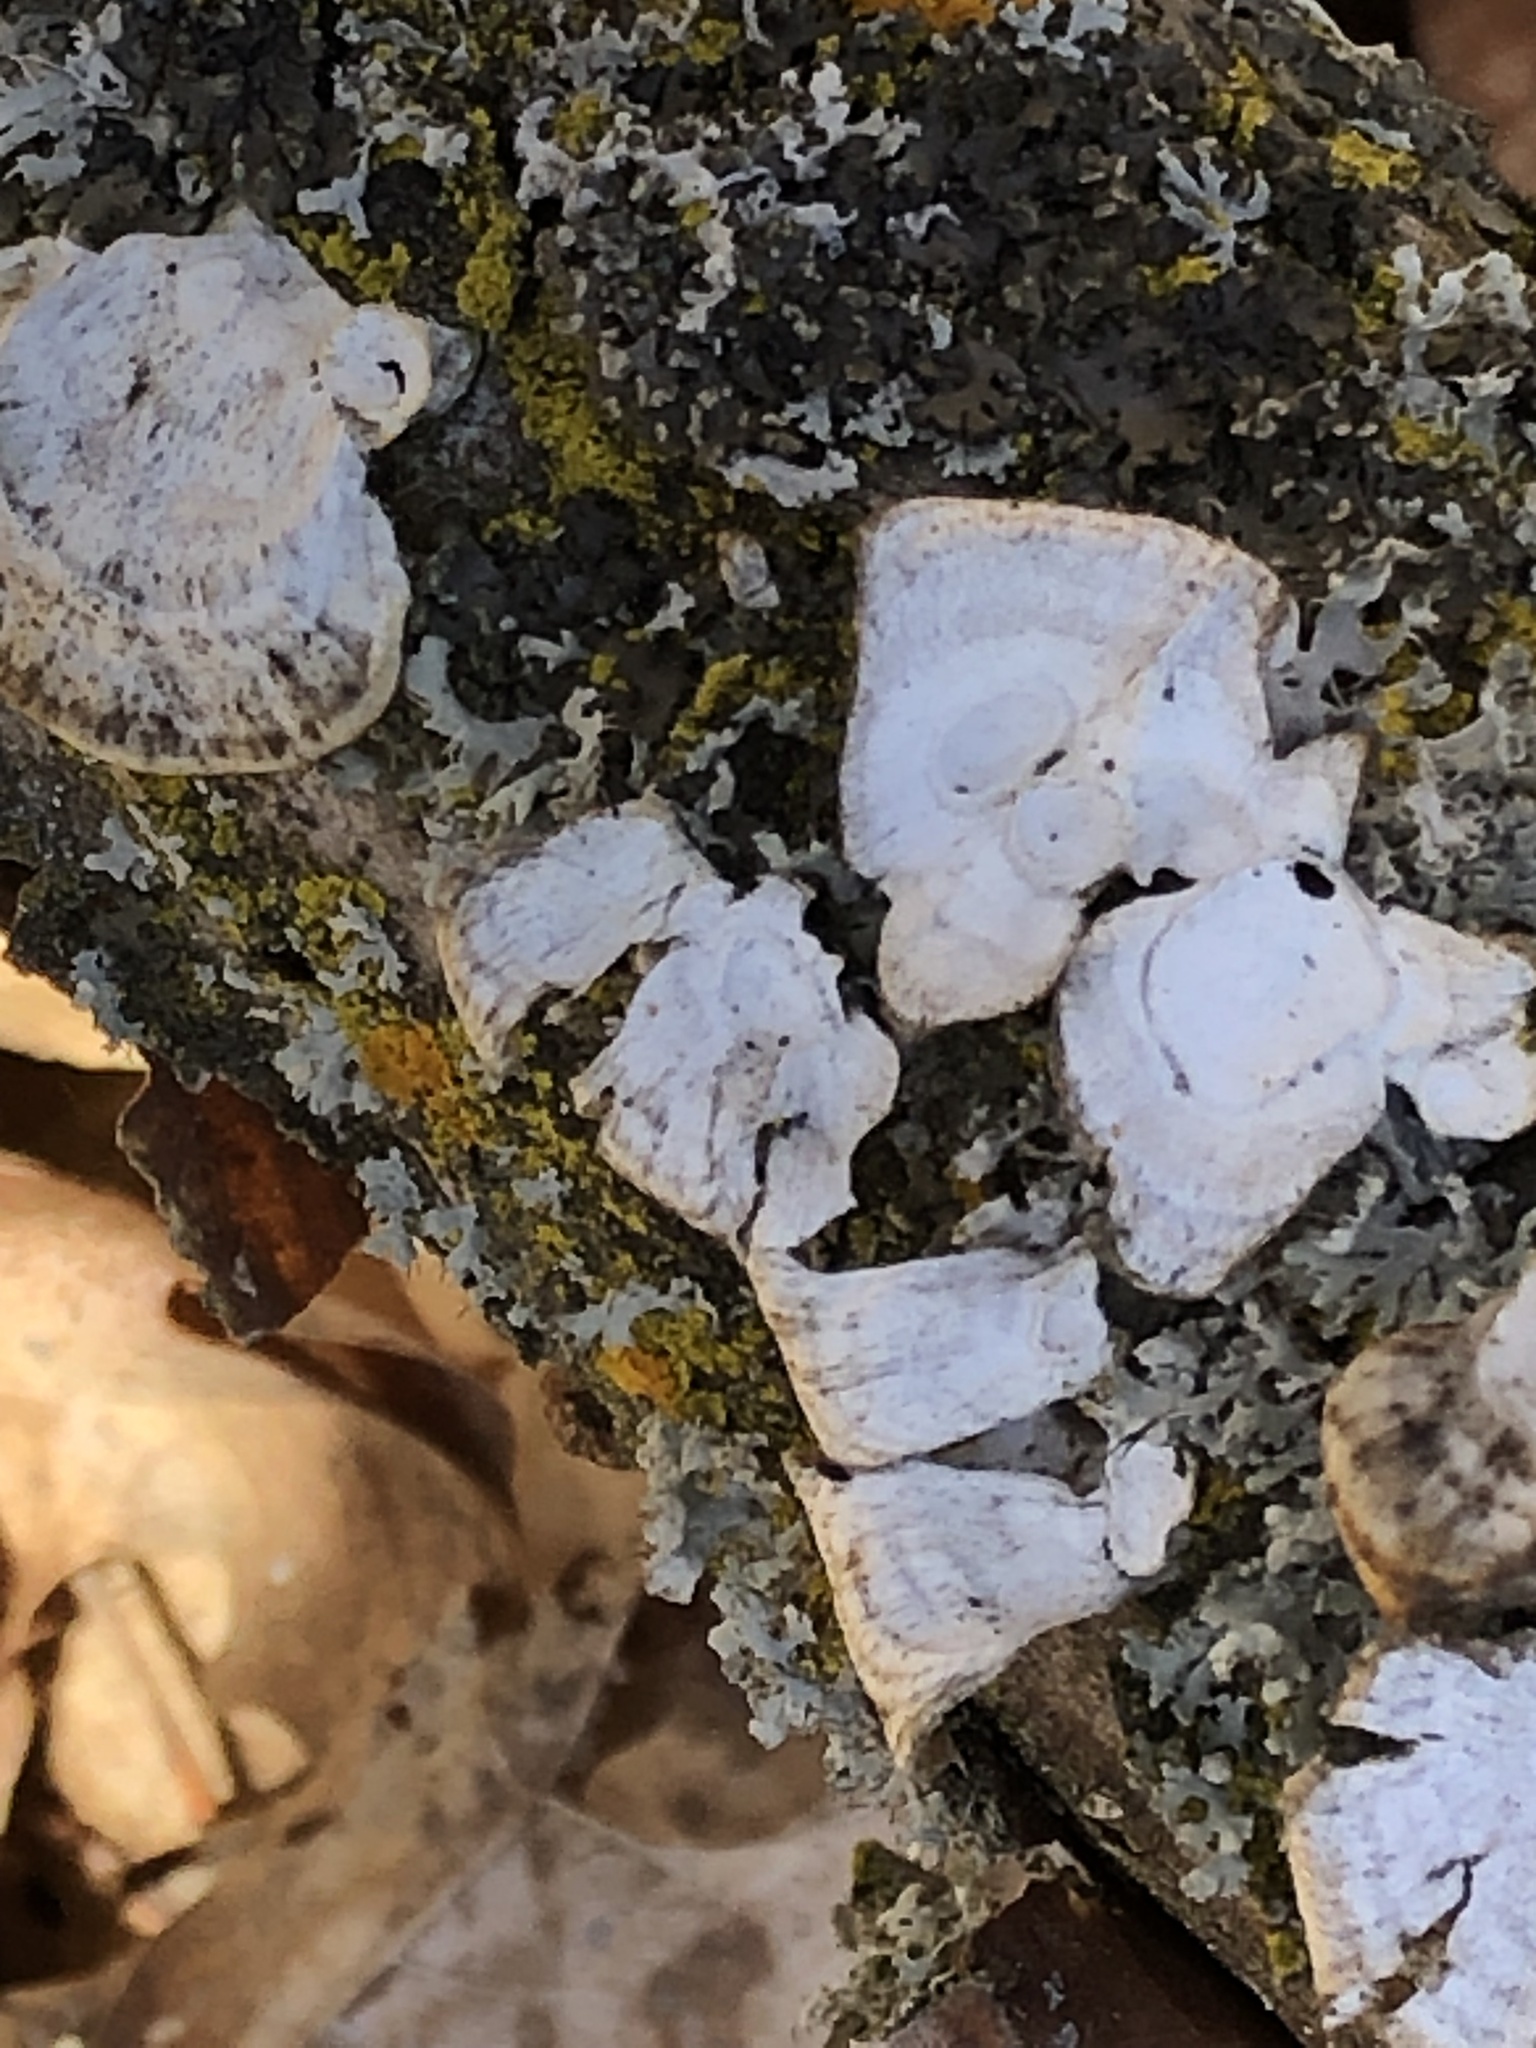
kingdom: Fungi
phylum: Basidiomycota
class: Agaricomycetes
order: Polyporales
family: Polyporaceae
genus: Poronidulus
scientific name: Poronidulus conchifer
